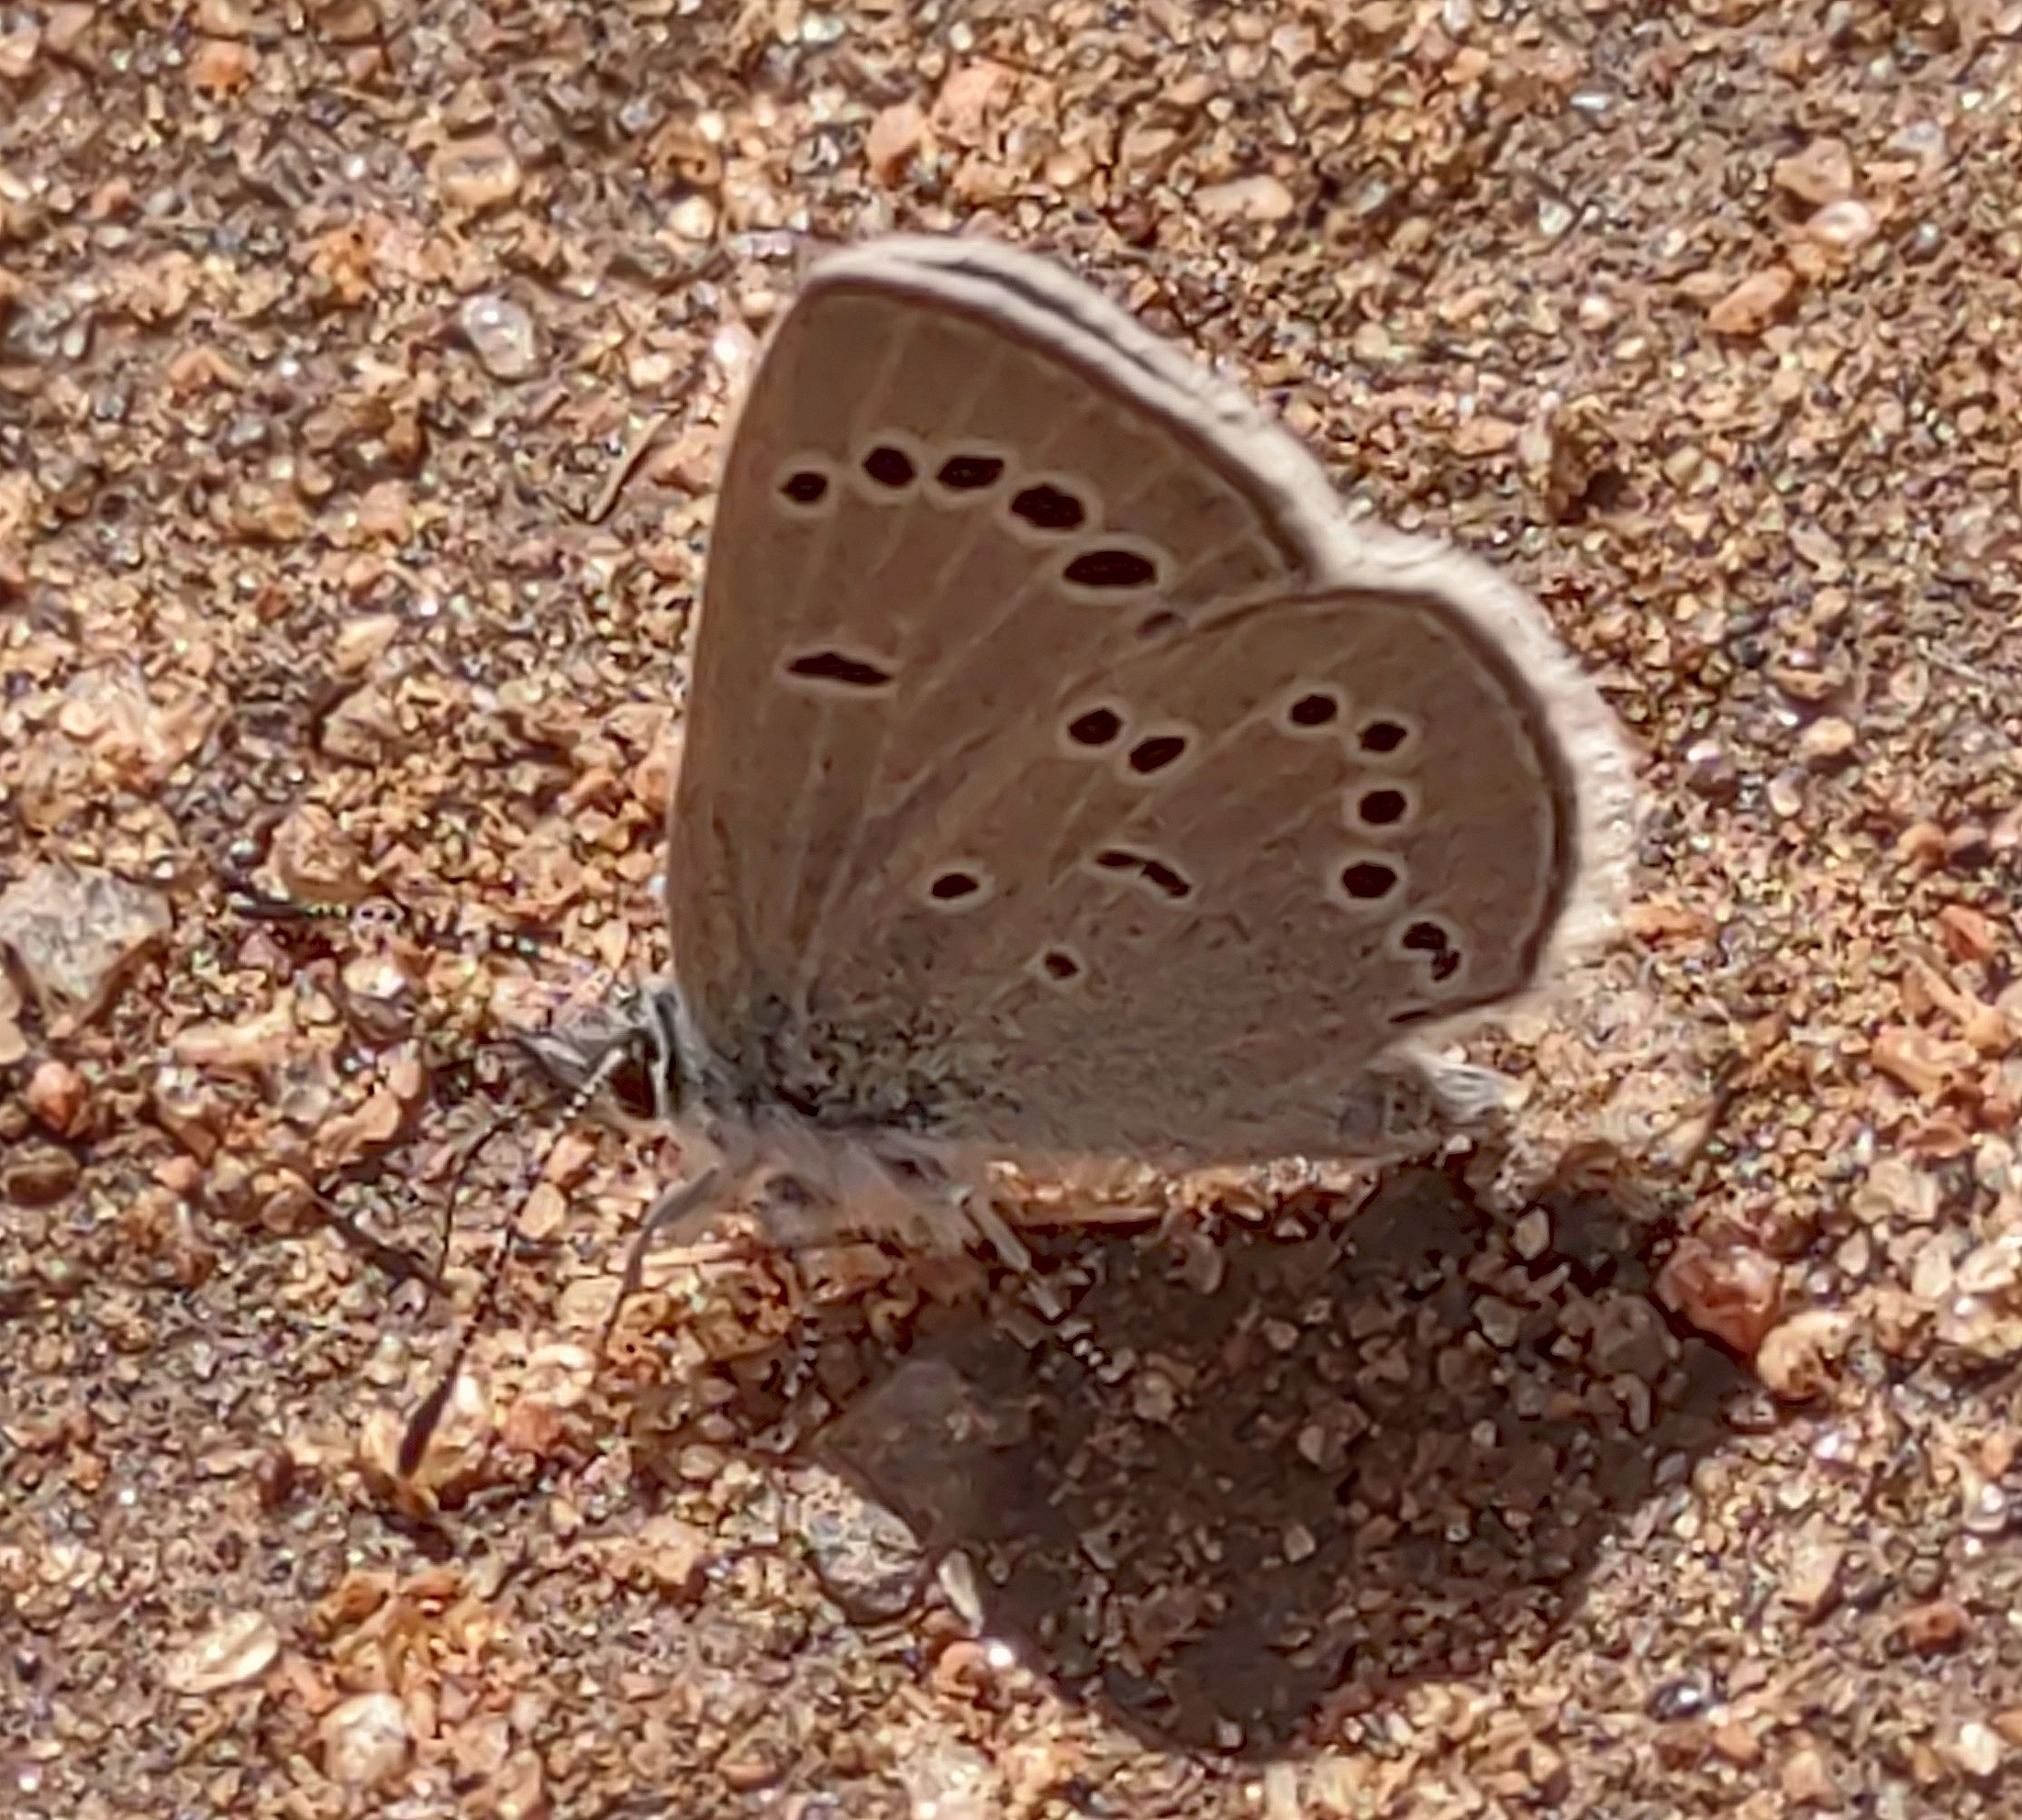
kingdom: Animalia
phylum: Arthropoda
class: Insecta
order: Lepidoptera
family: Lycaenidae
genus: Glaucopsyche
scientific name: Glaucopsyche lygdamus
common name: Silvery blue
